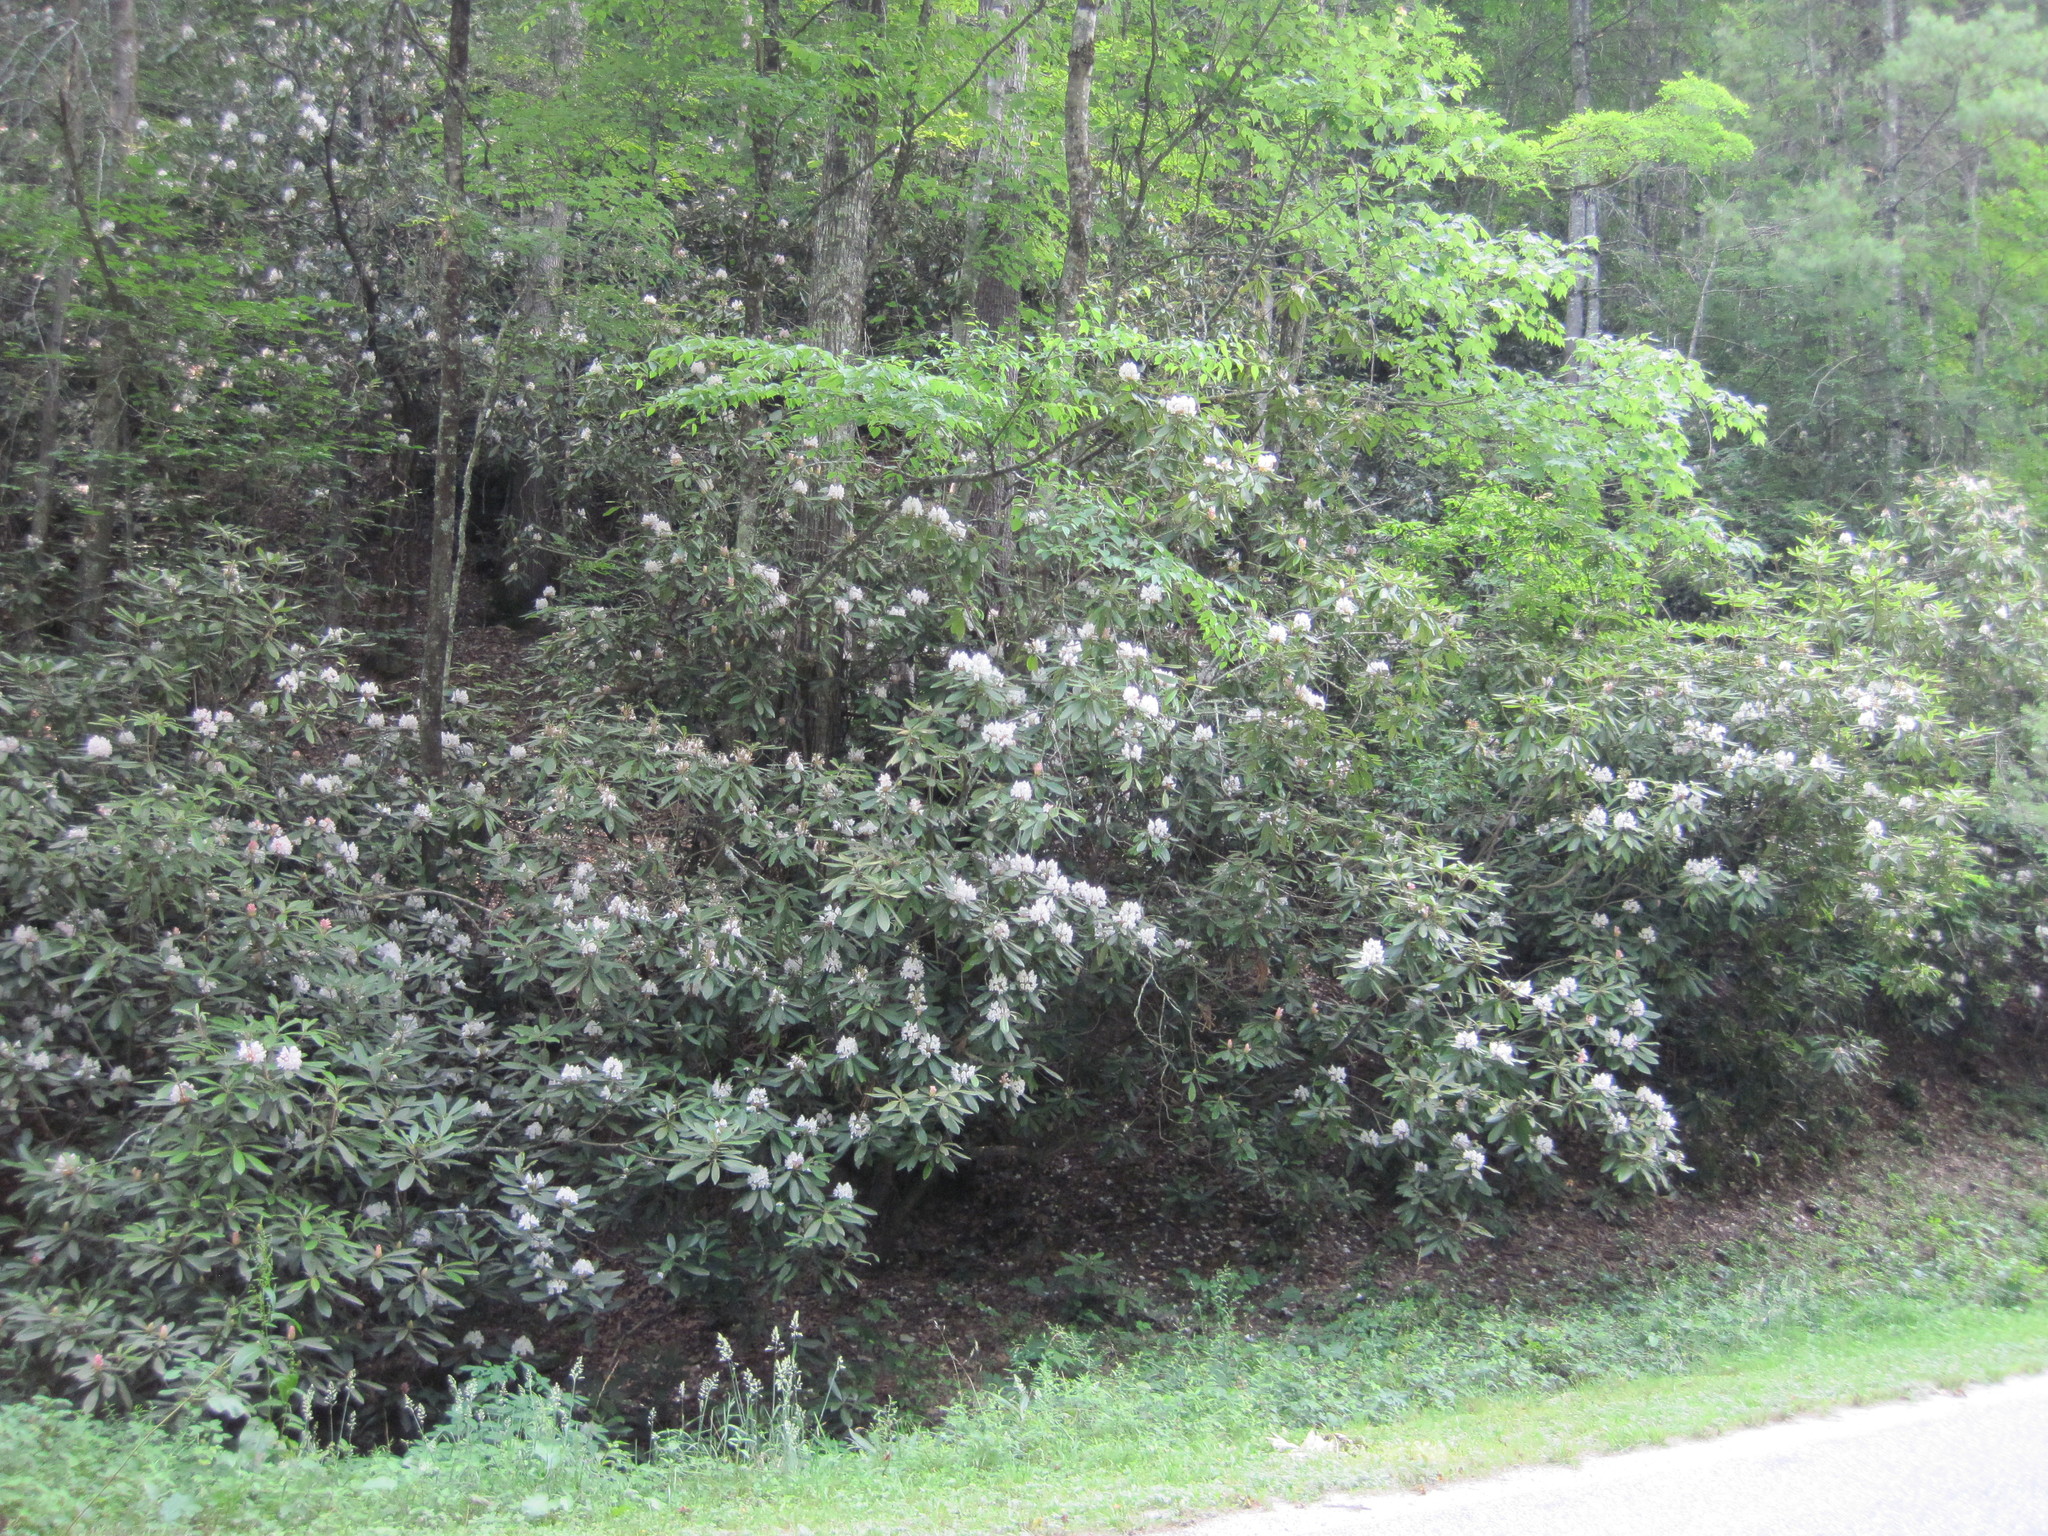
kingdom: Plantae
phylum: Tracheophyta
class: Magnoliopsida
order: Ericales
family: Ericaceae
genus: Rhododendron
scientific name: Rhododendron maximum
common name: Great rhododendron
